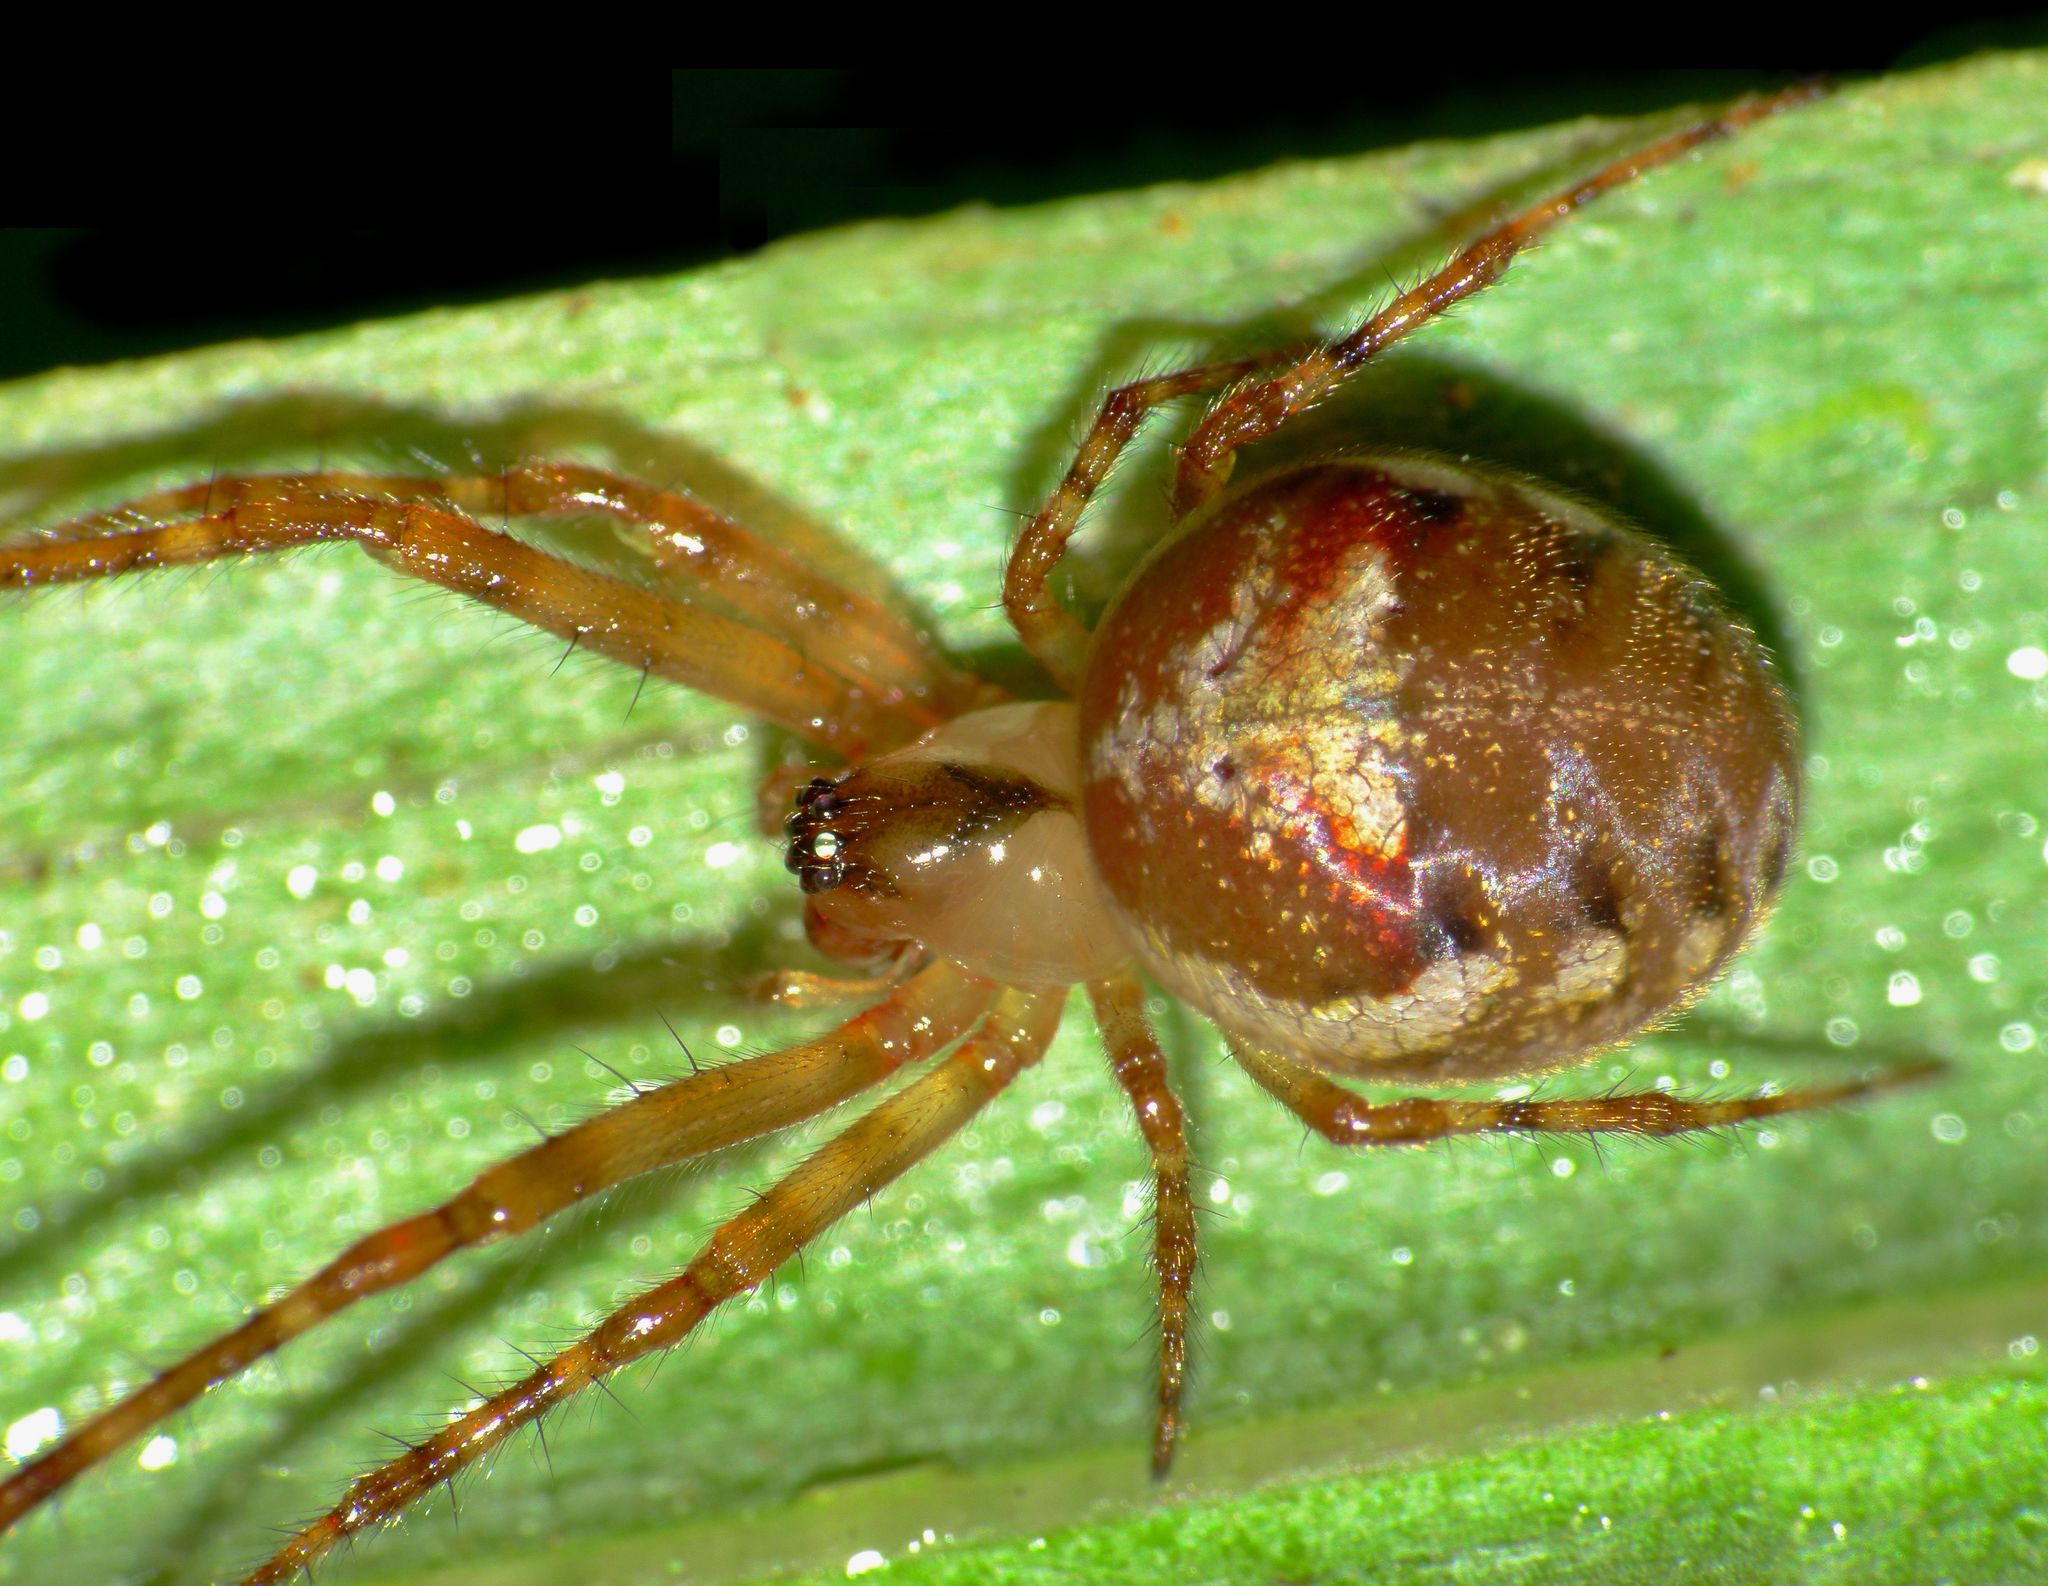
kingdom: Animalia
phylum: Arthropoda
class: Arachnida
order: Araneae
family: Tetragnathidae
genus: Taraire
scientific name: Taraire rufolineata
